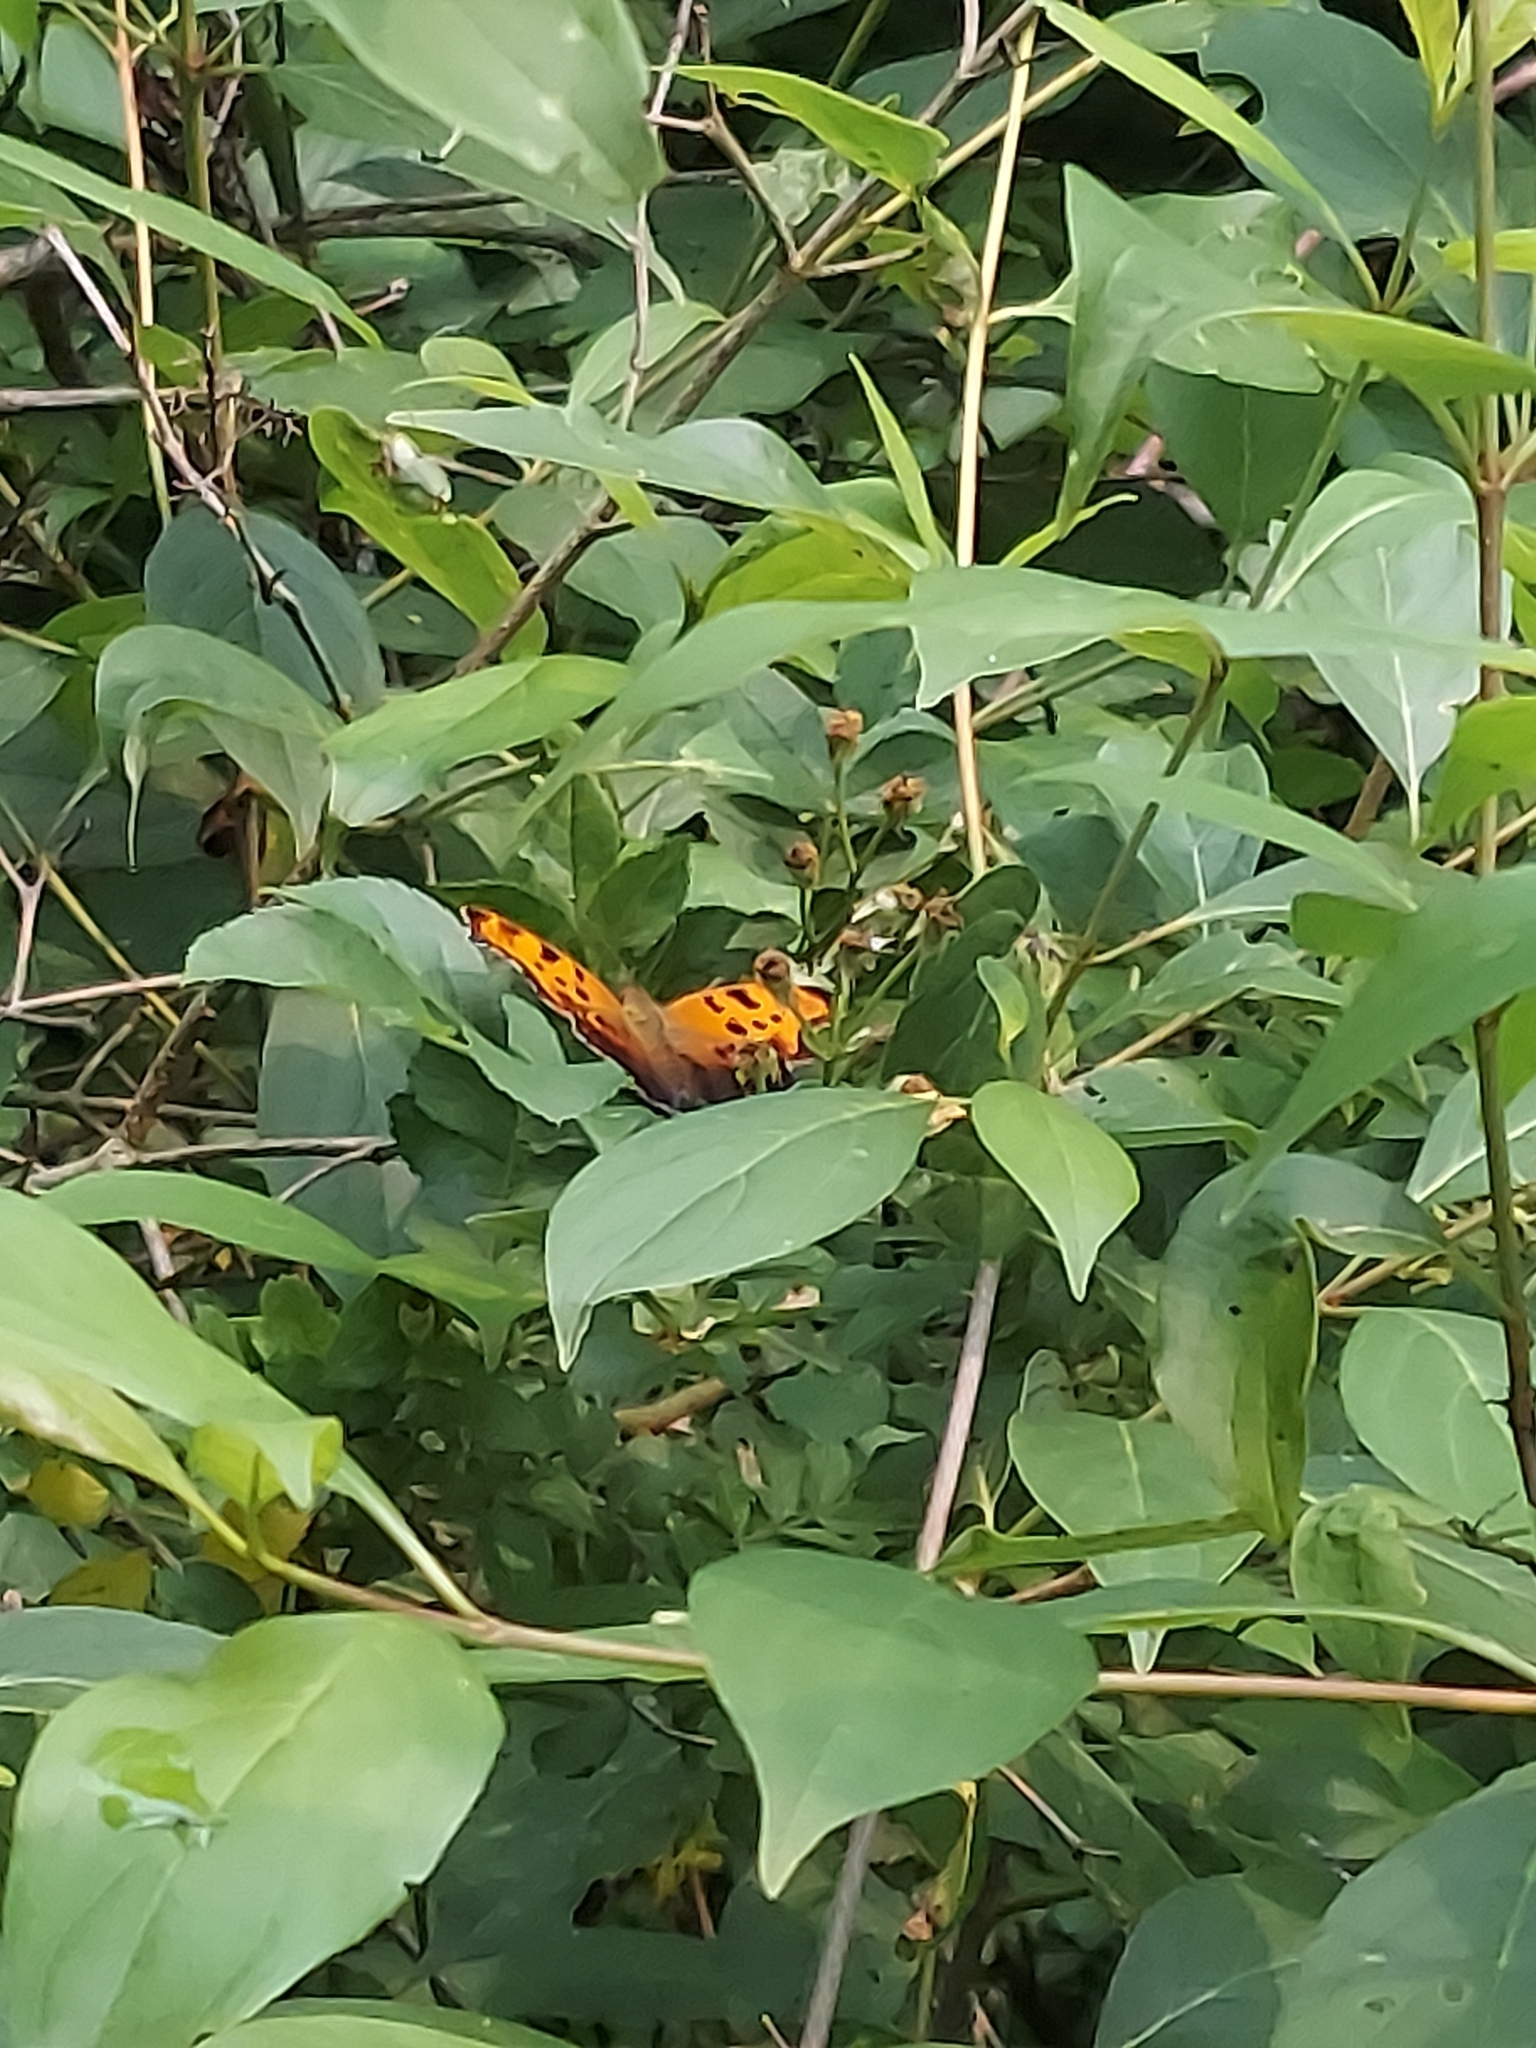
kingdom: Animalia
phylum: Arthropoda
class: Insecta
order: Lepidoptera
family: Nymphalidae
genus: Polygonia
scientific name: Polygonia comma
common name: Eastern comma
